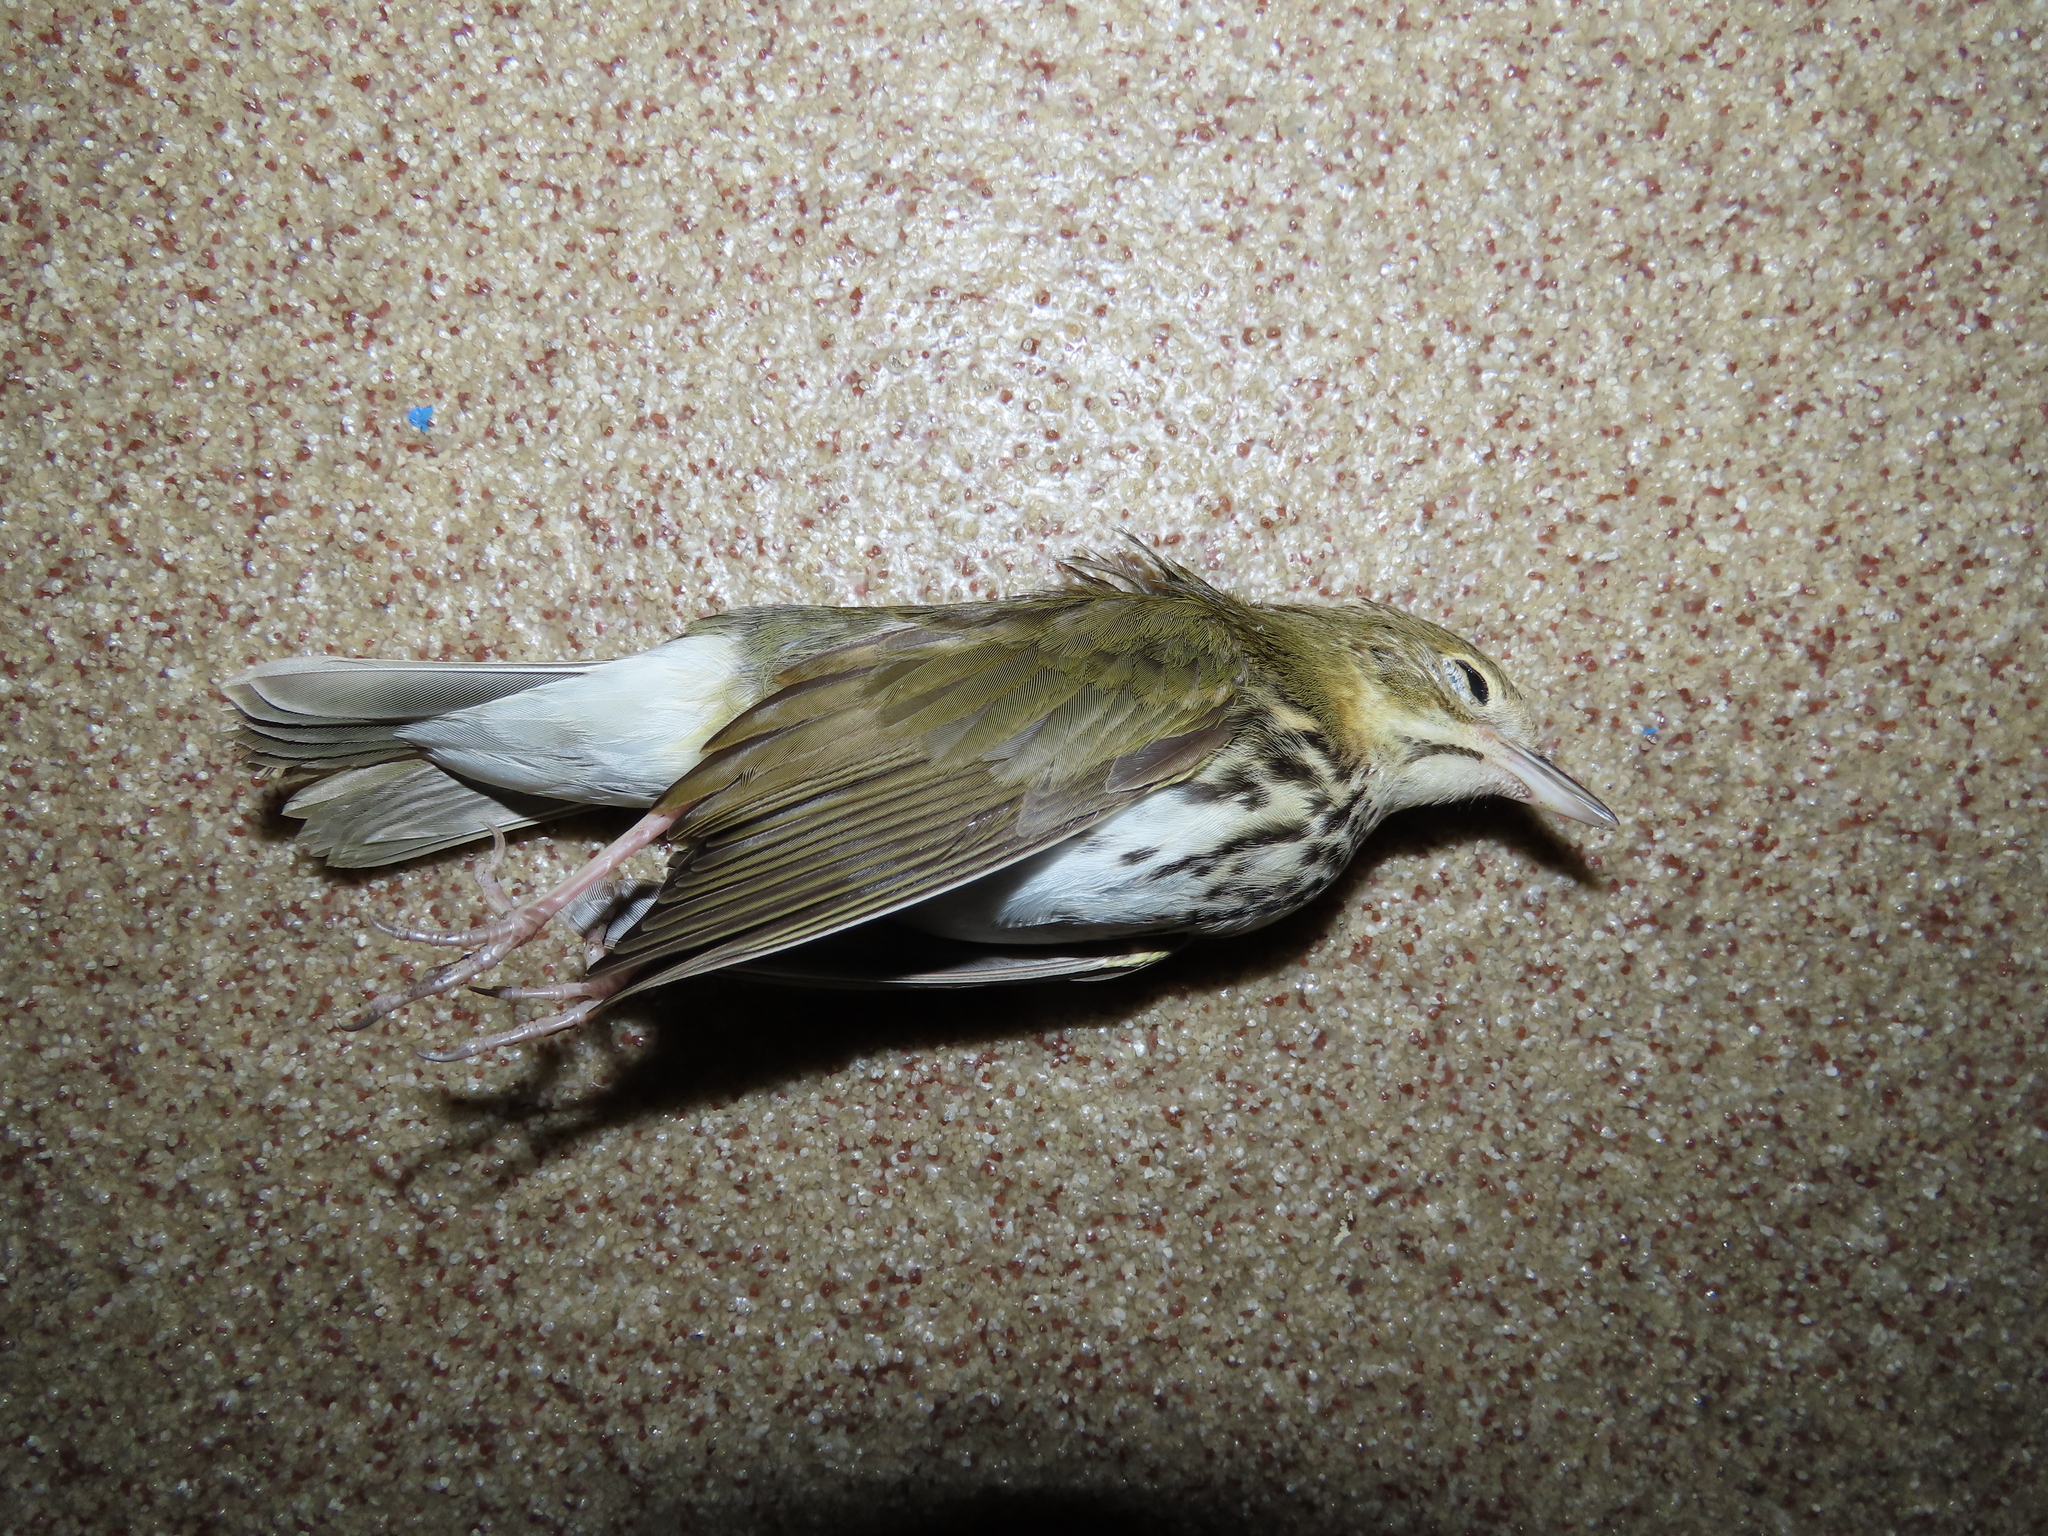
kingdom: Animalia
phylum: Chordata
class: Aves
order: Passeriformes
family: Parulidae
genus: Seiurus
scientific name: Seiurus aurocapilla
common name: Ovenbird
